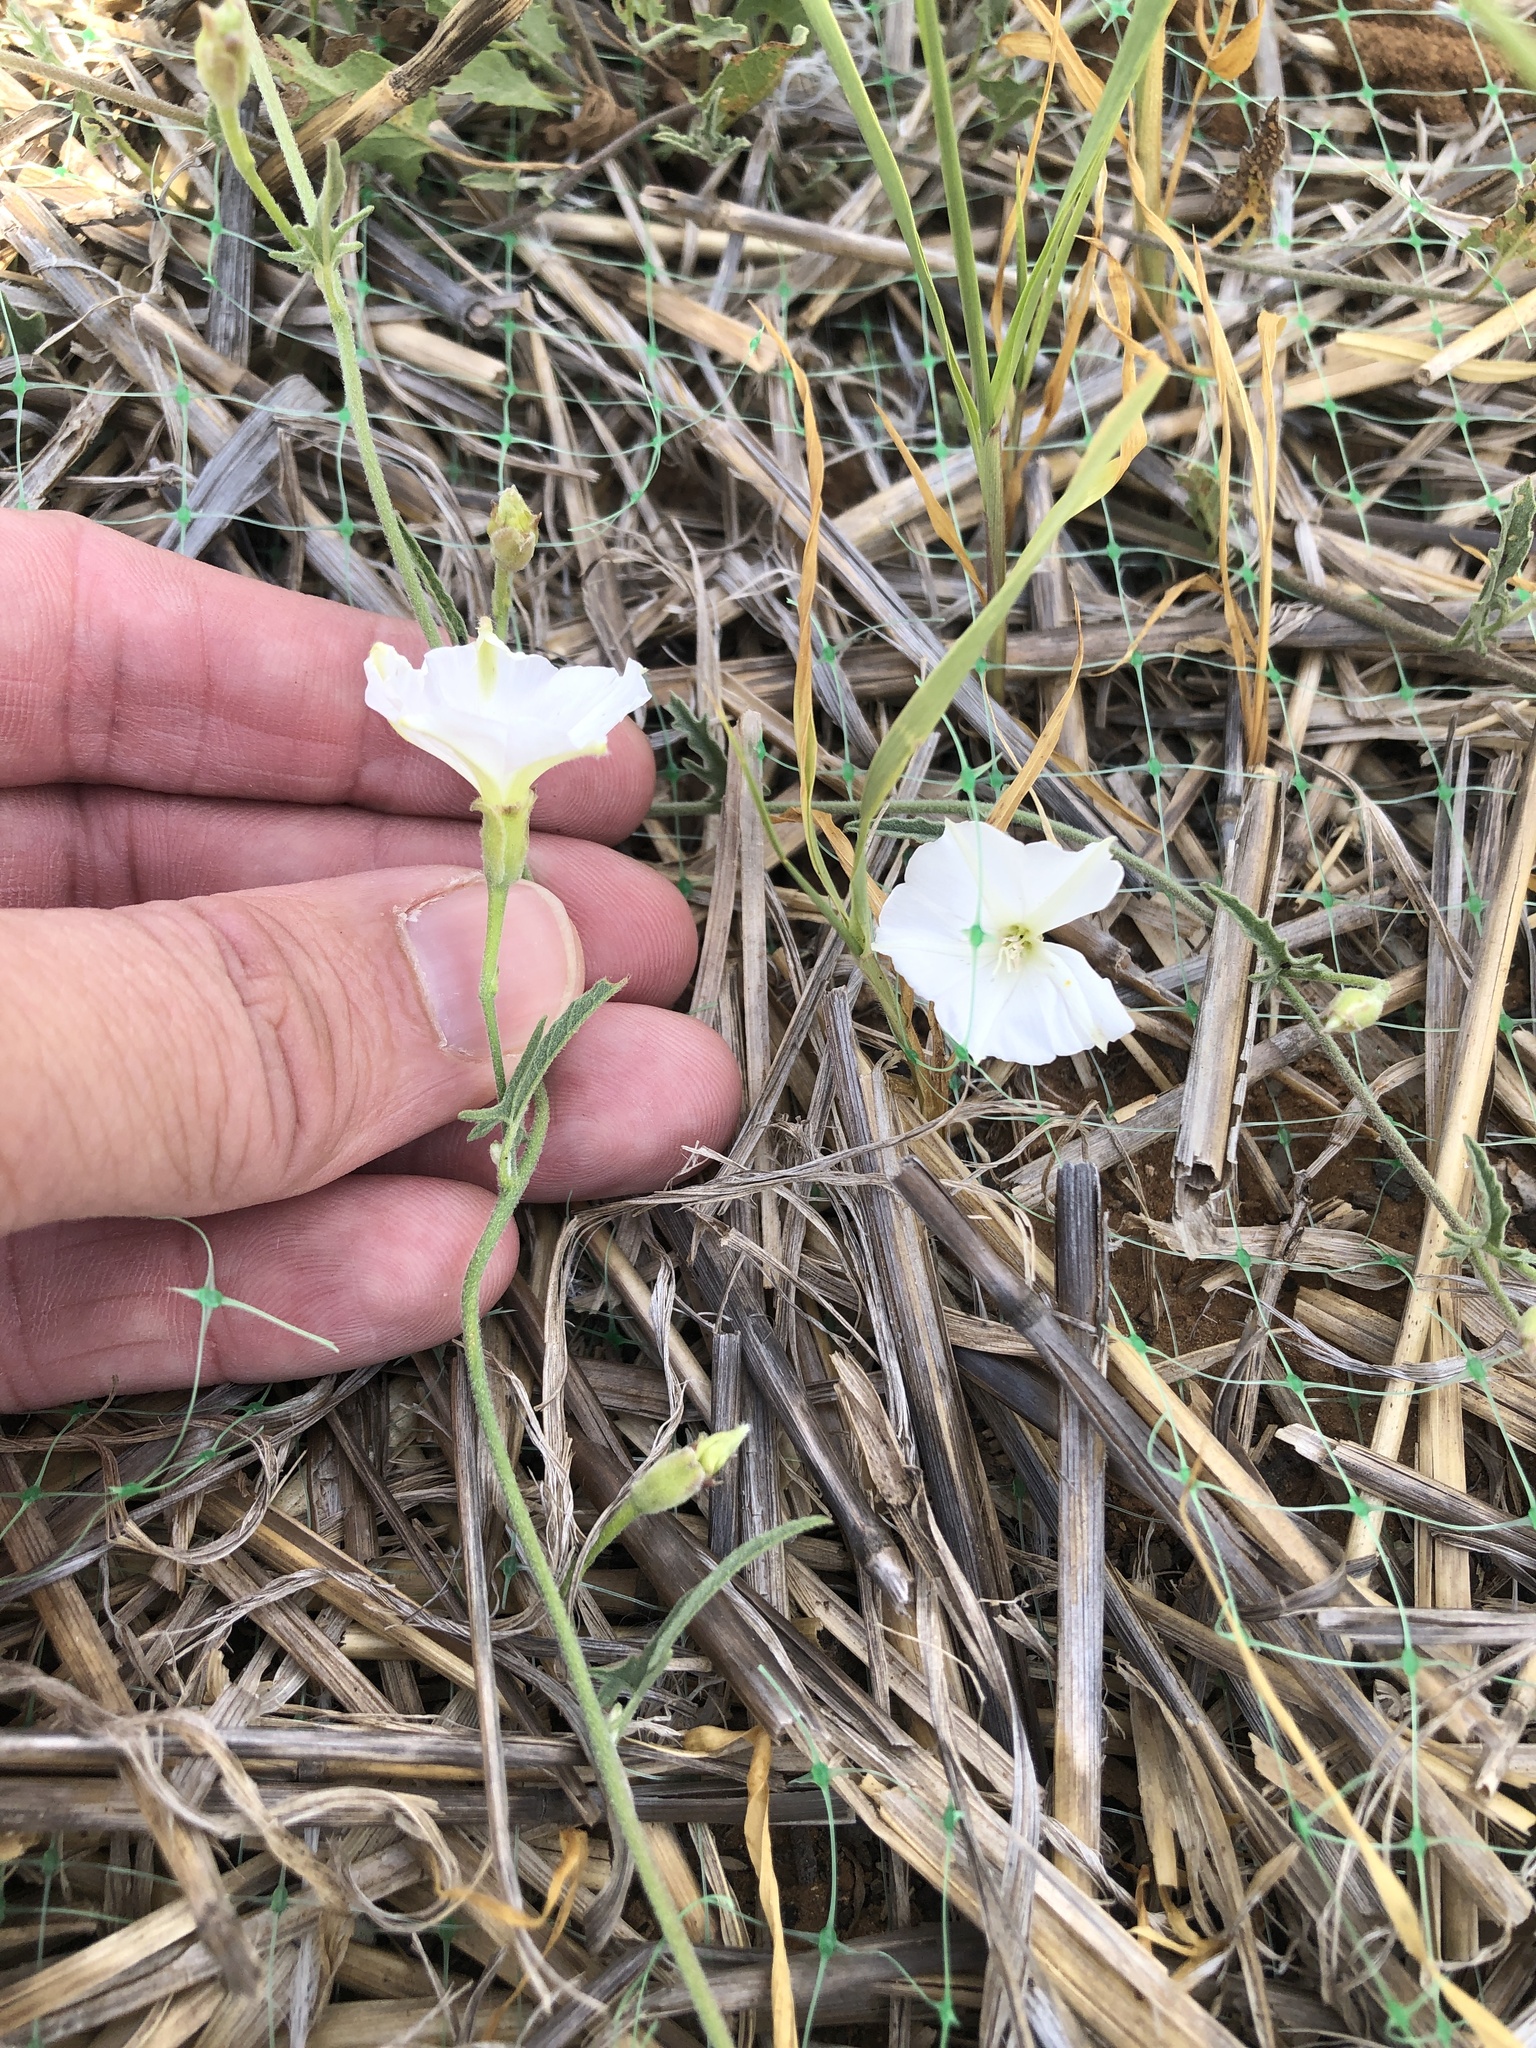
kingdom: Plantae
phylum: Tracheophyta
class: Magnoliopsida
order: Solanales
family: Convolvulaceae
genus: Convolvulus
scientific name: Convolvulus equitans
